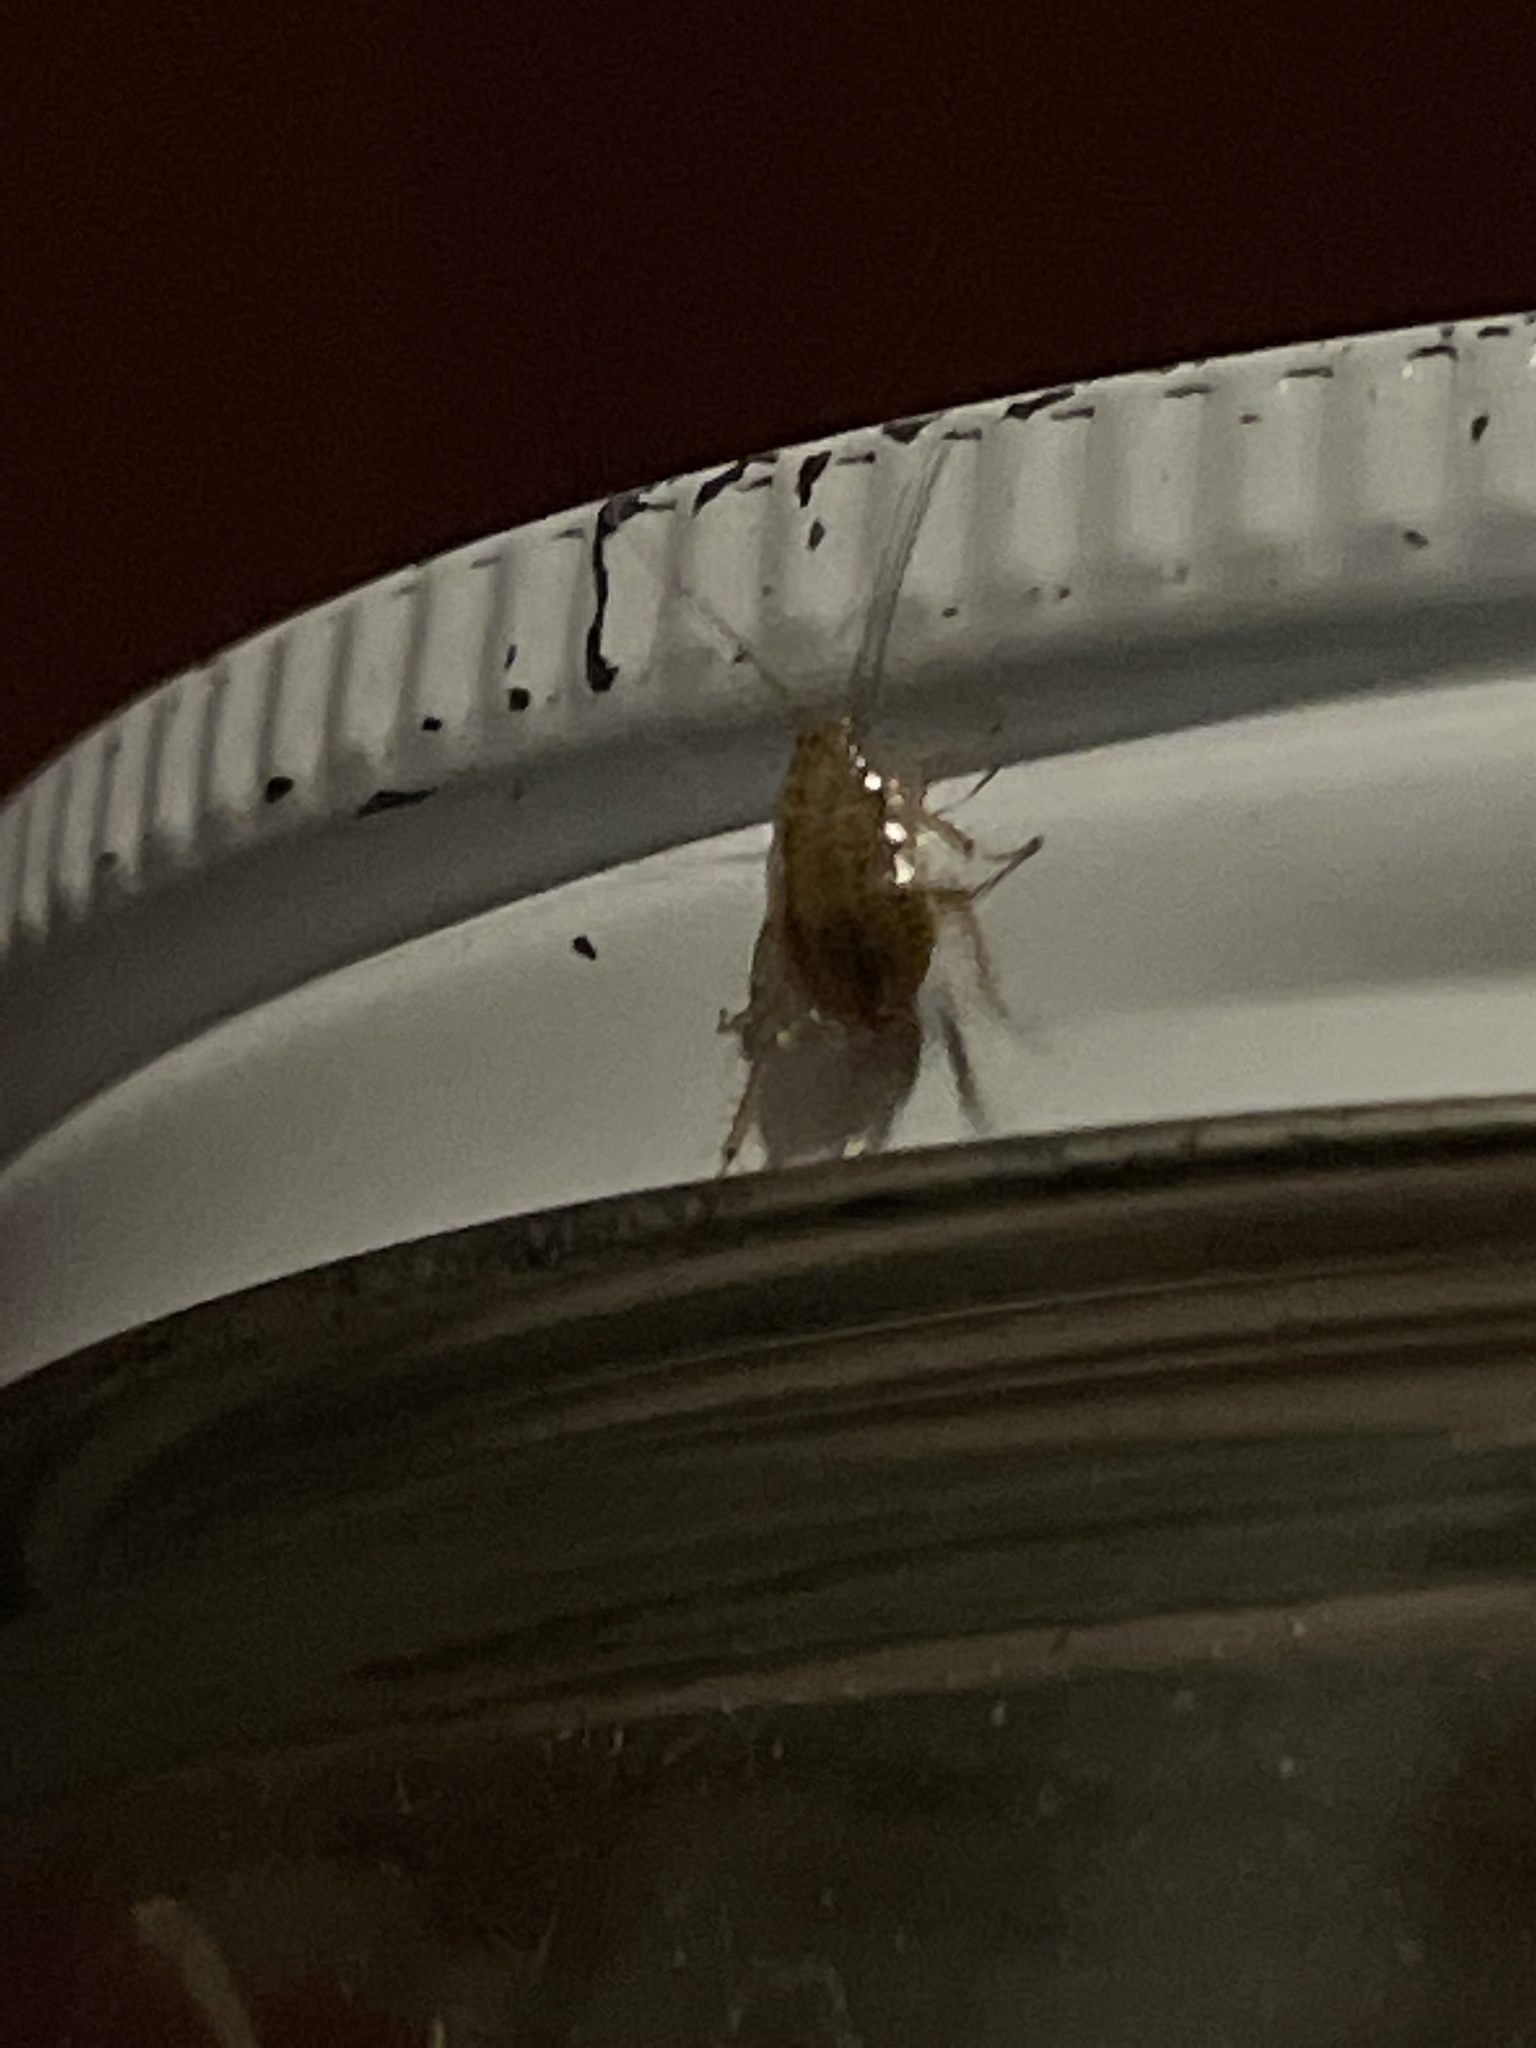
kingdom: Animalia
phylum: Arthropoda
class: Insecta
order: Blattodea
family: Ectobiidae
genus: Ectobius
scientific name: Ectobius pallidus
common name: Tawny cockroach
